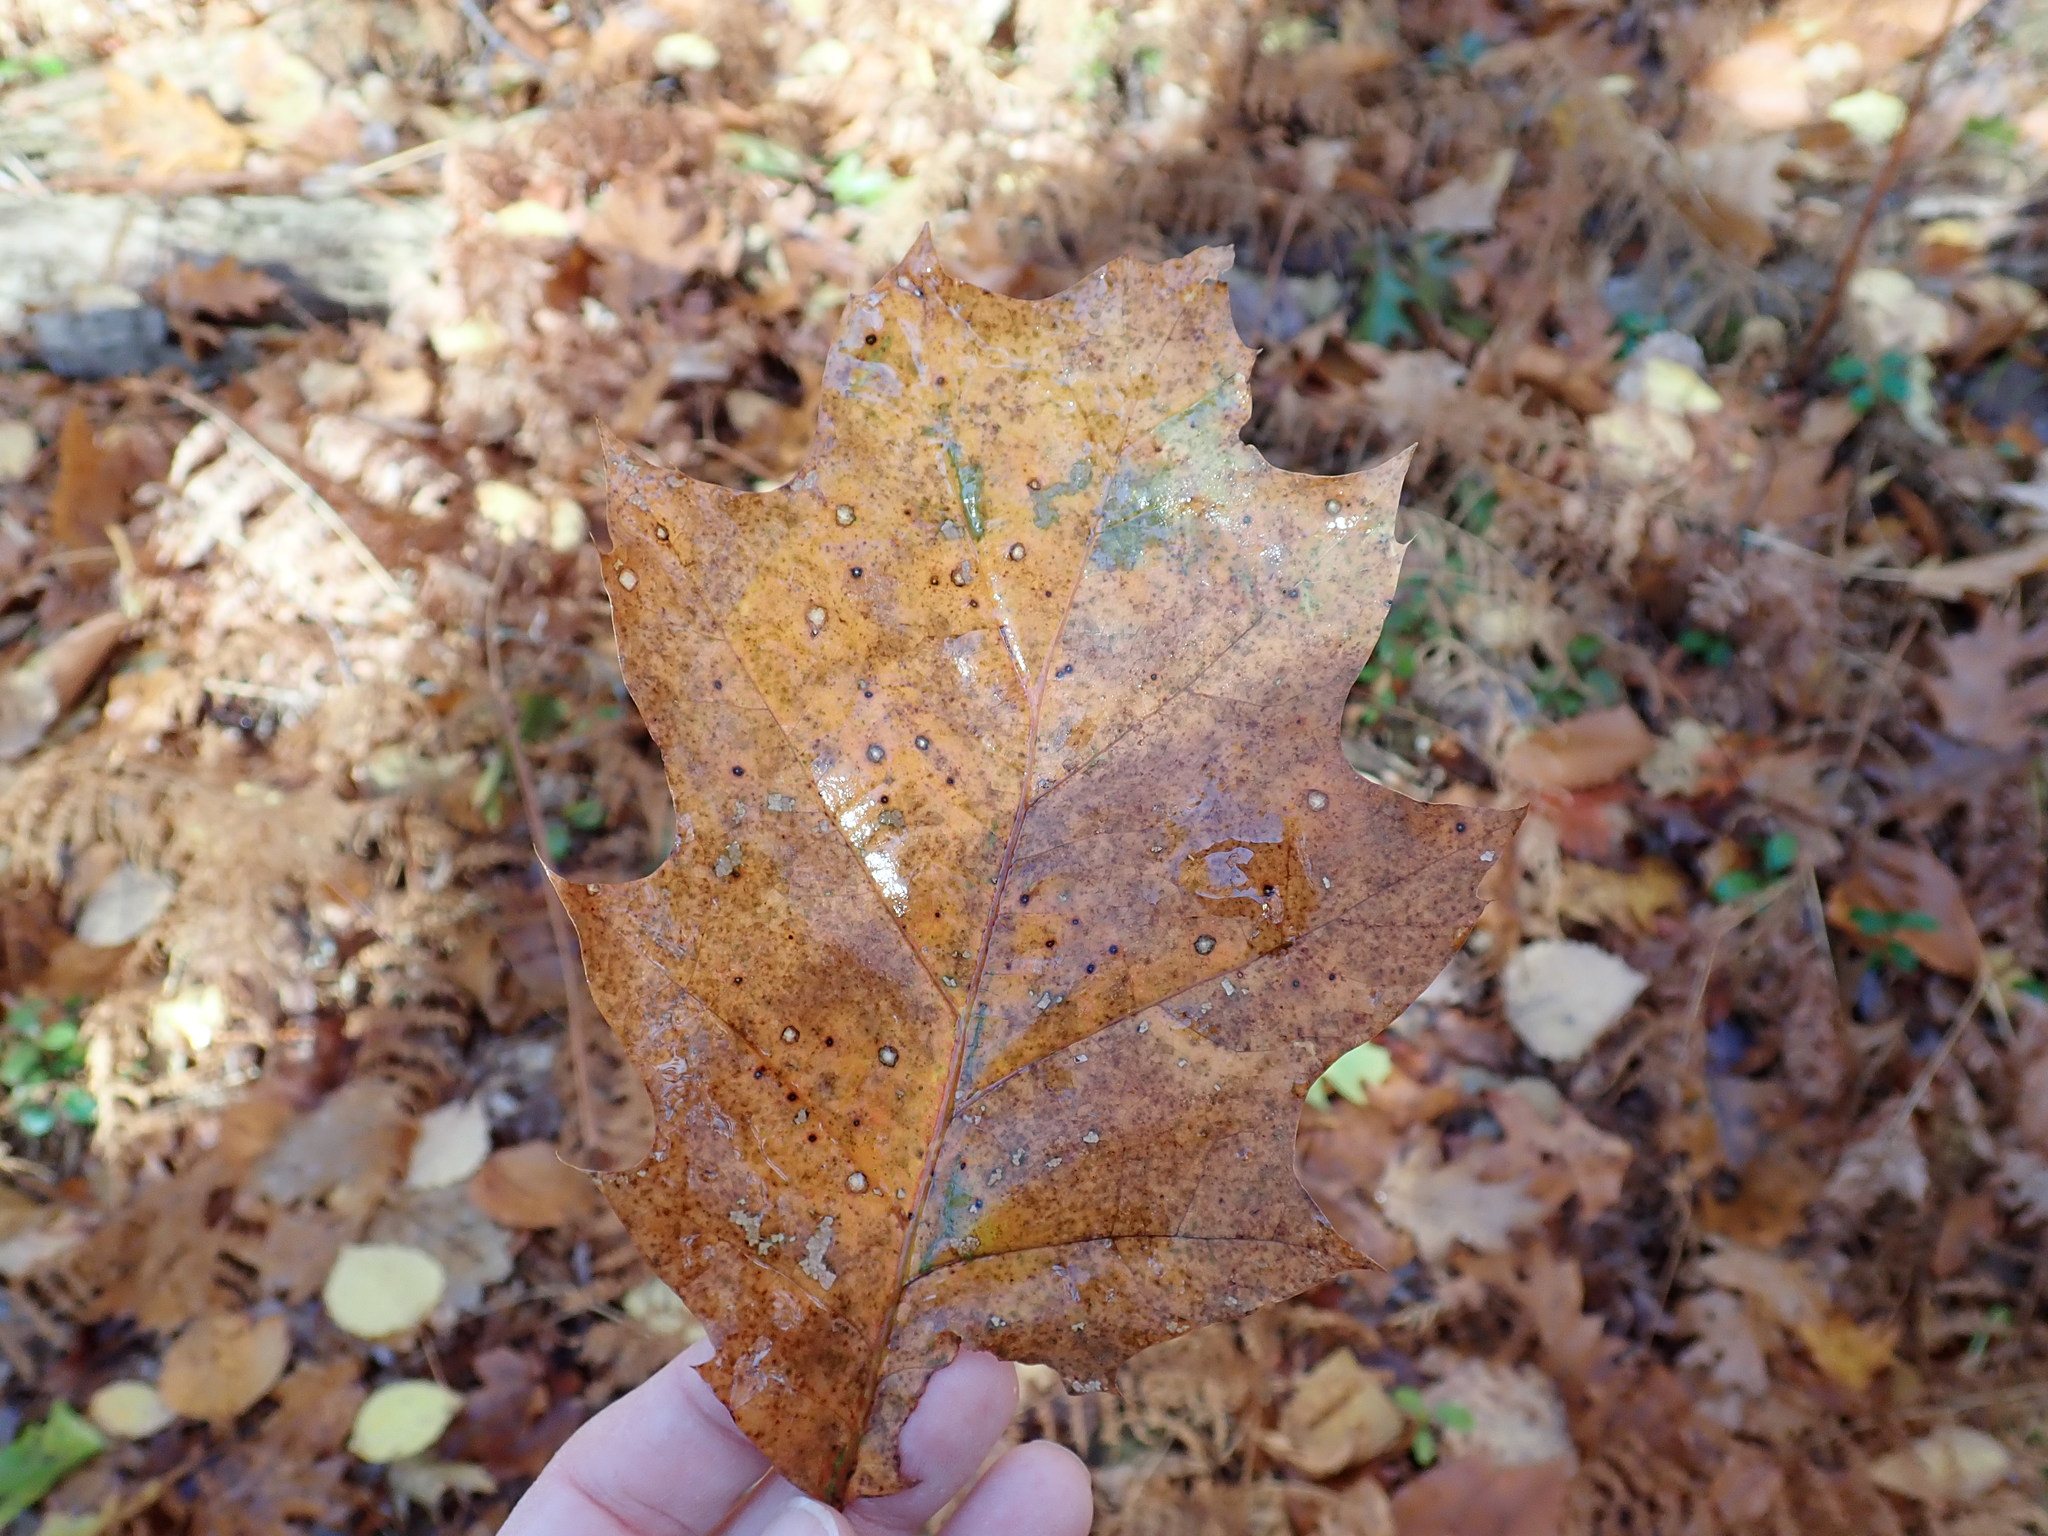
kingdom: Plantae
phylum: Tracheophyta
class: Magnoliopsida
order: Fagales
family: Fagaceae
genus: Quercus
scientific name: Quercus rubra
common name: Red oak
